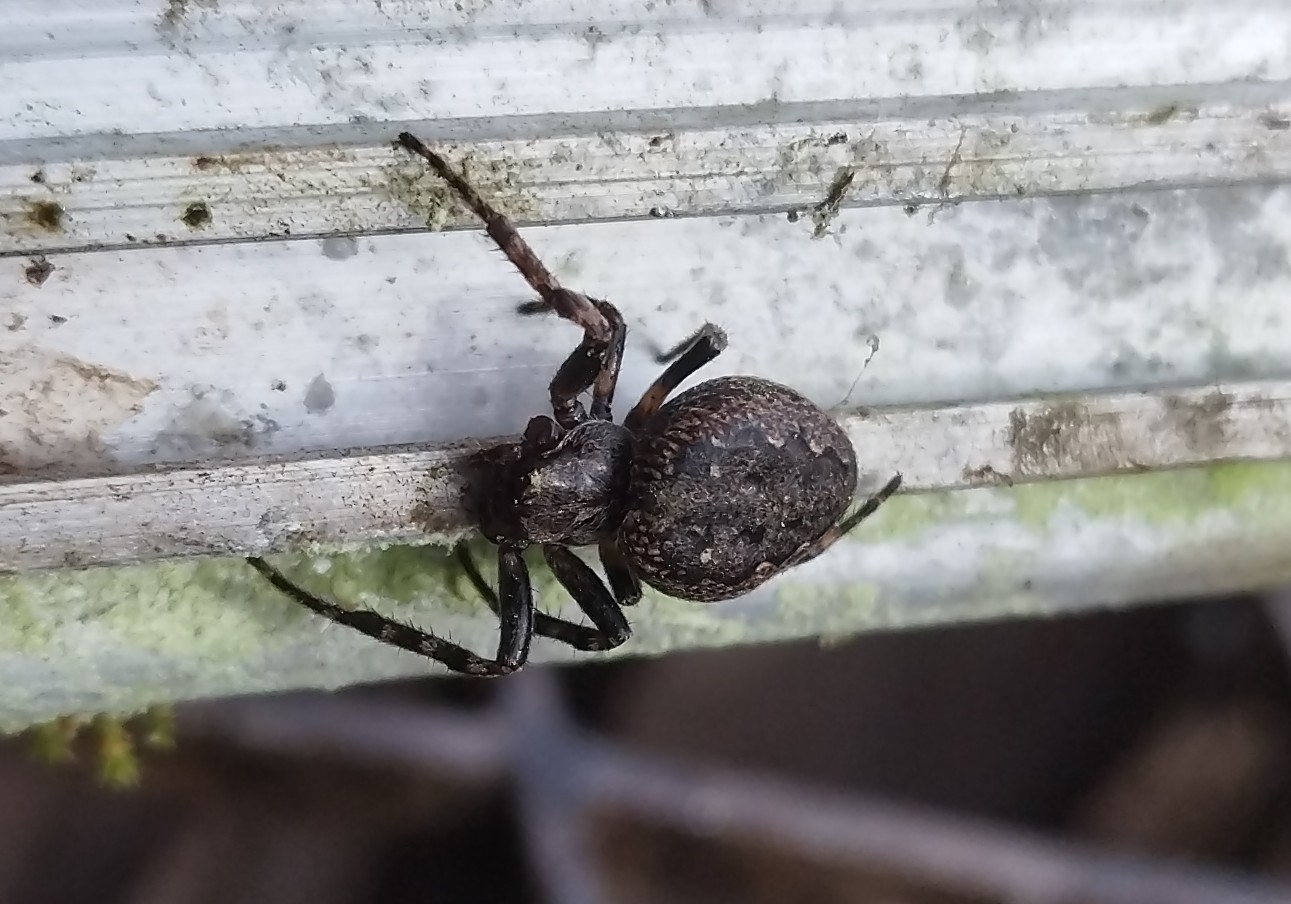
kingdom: Animalia
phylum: Arthropoda
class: Arachnida
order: Araneae
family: Araneidae
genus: Nuctenea
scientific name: Nuctenea umbratica
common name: Toad spider
